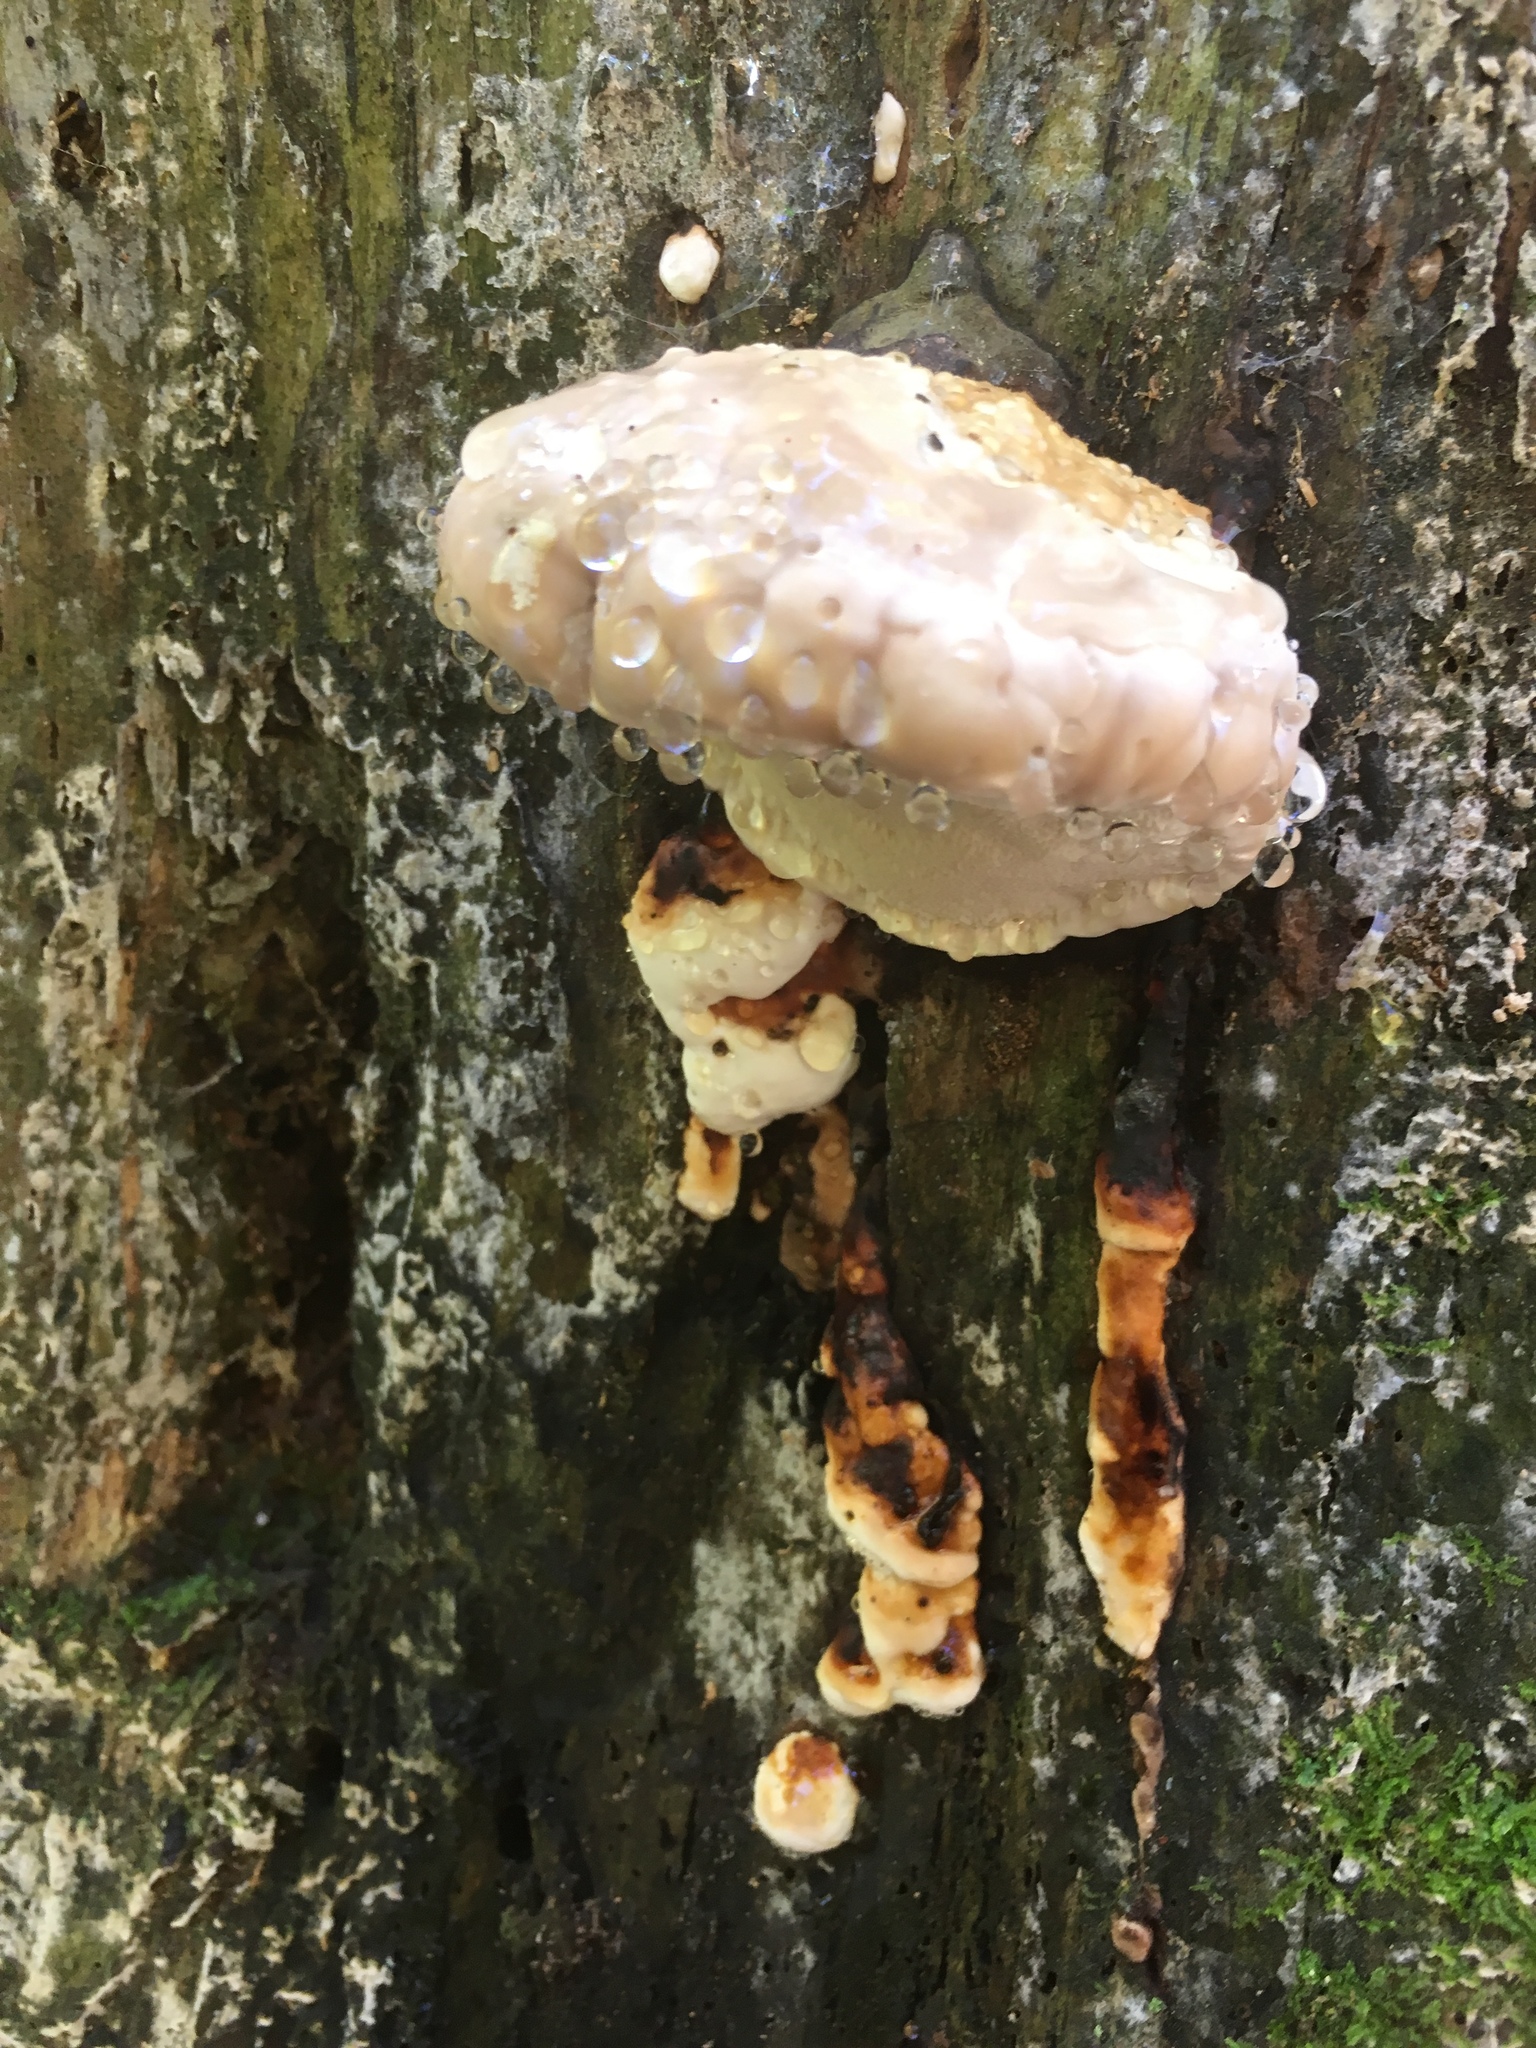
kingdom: Fungi
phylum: Basidiomycota
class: Agaricomycetes
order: Polyporales
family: Fomitopsidaceae
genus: Fomitopsis
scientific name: Fomitopsis pinicola
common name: Red-belted bracket
